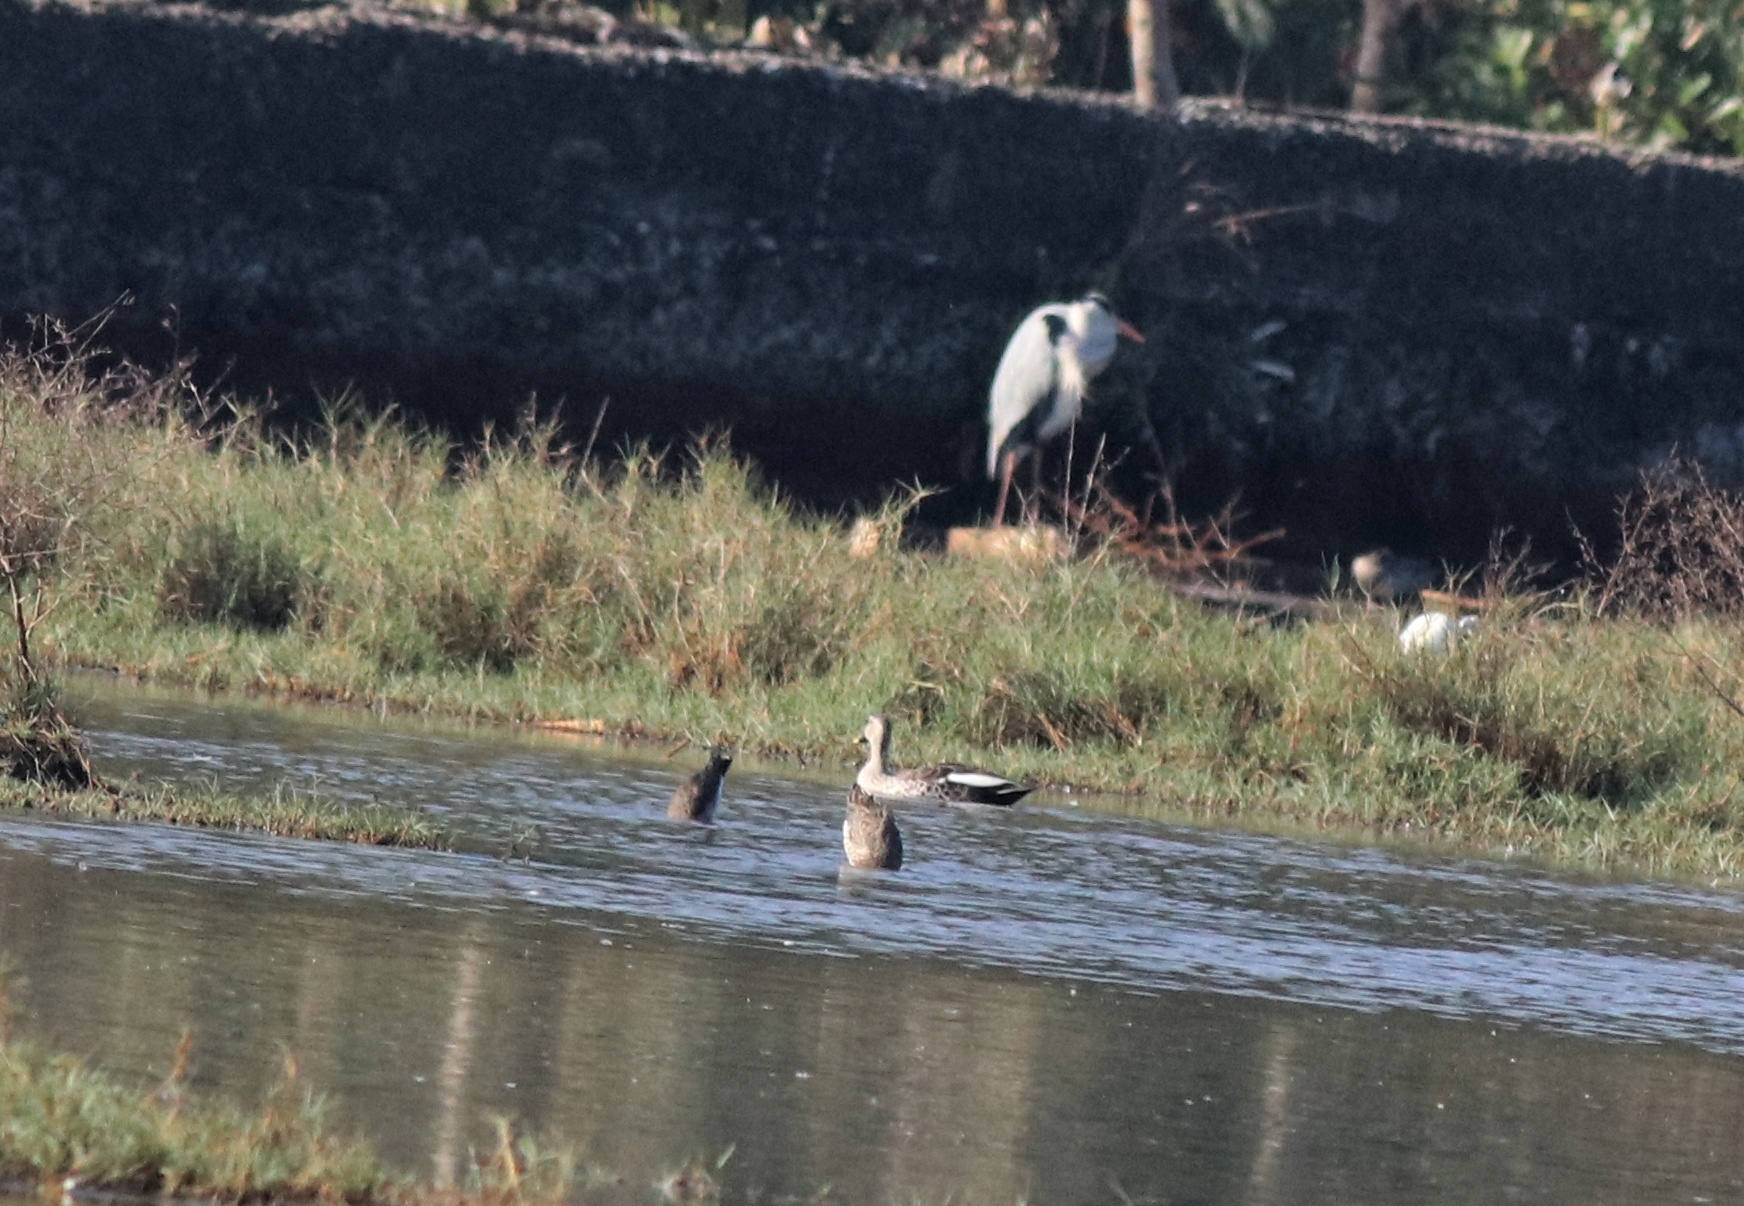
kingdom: Animalia
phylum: Chordata
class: Aves
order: Anseriformes
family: Anatidae
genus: Anas
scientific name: Anas poecilorhyncha
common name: Indian spot-billed duck
